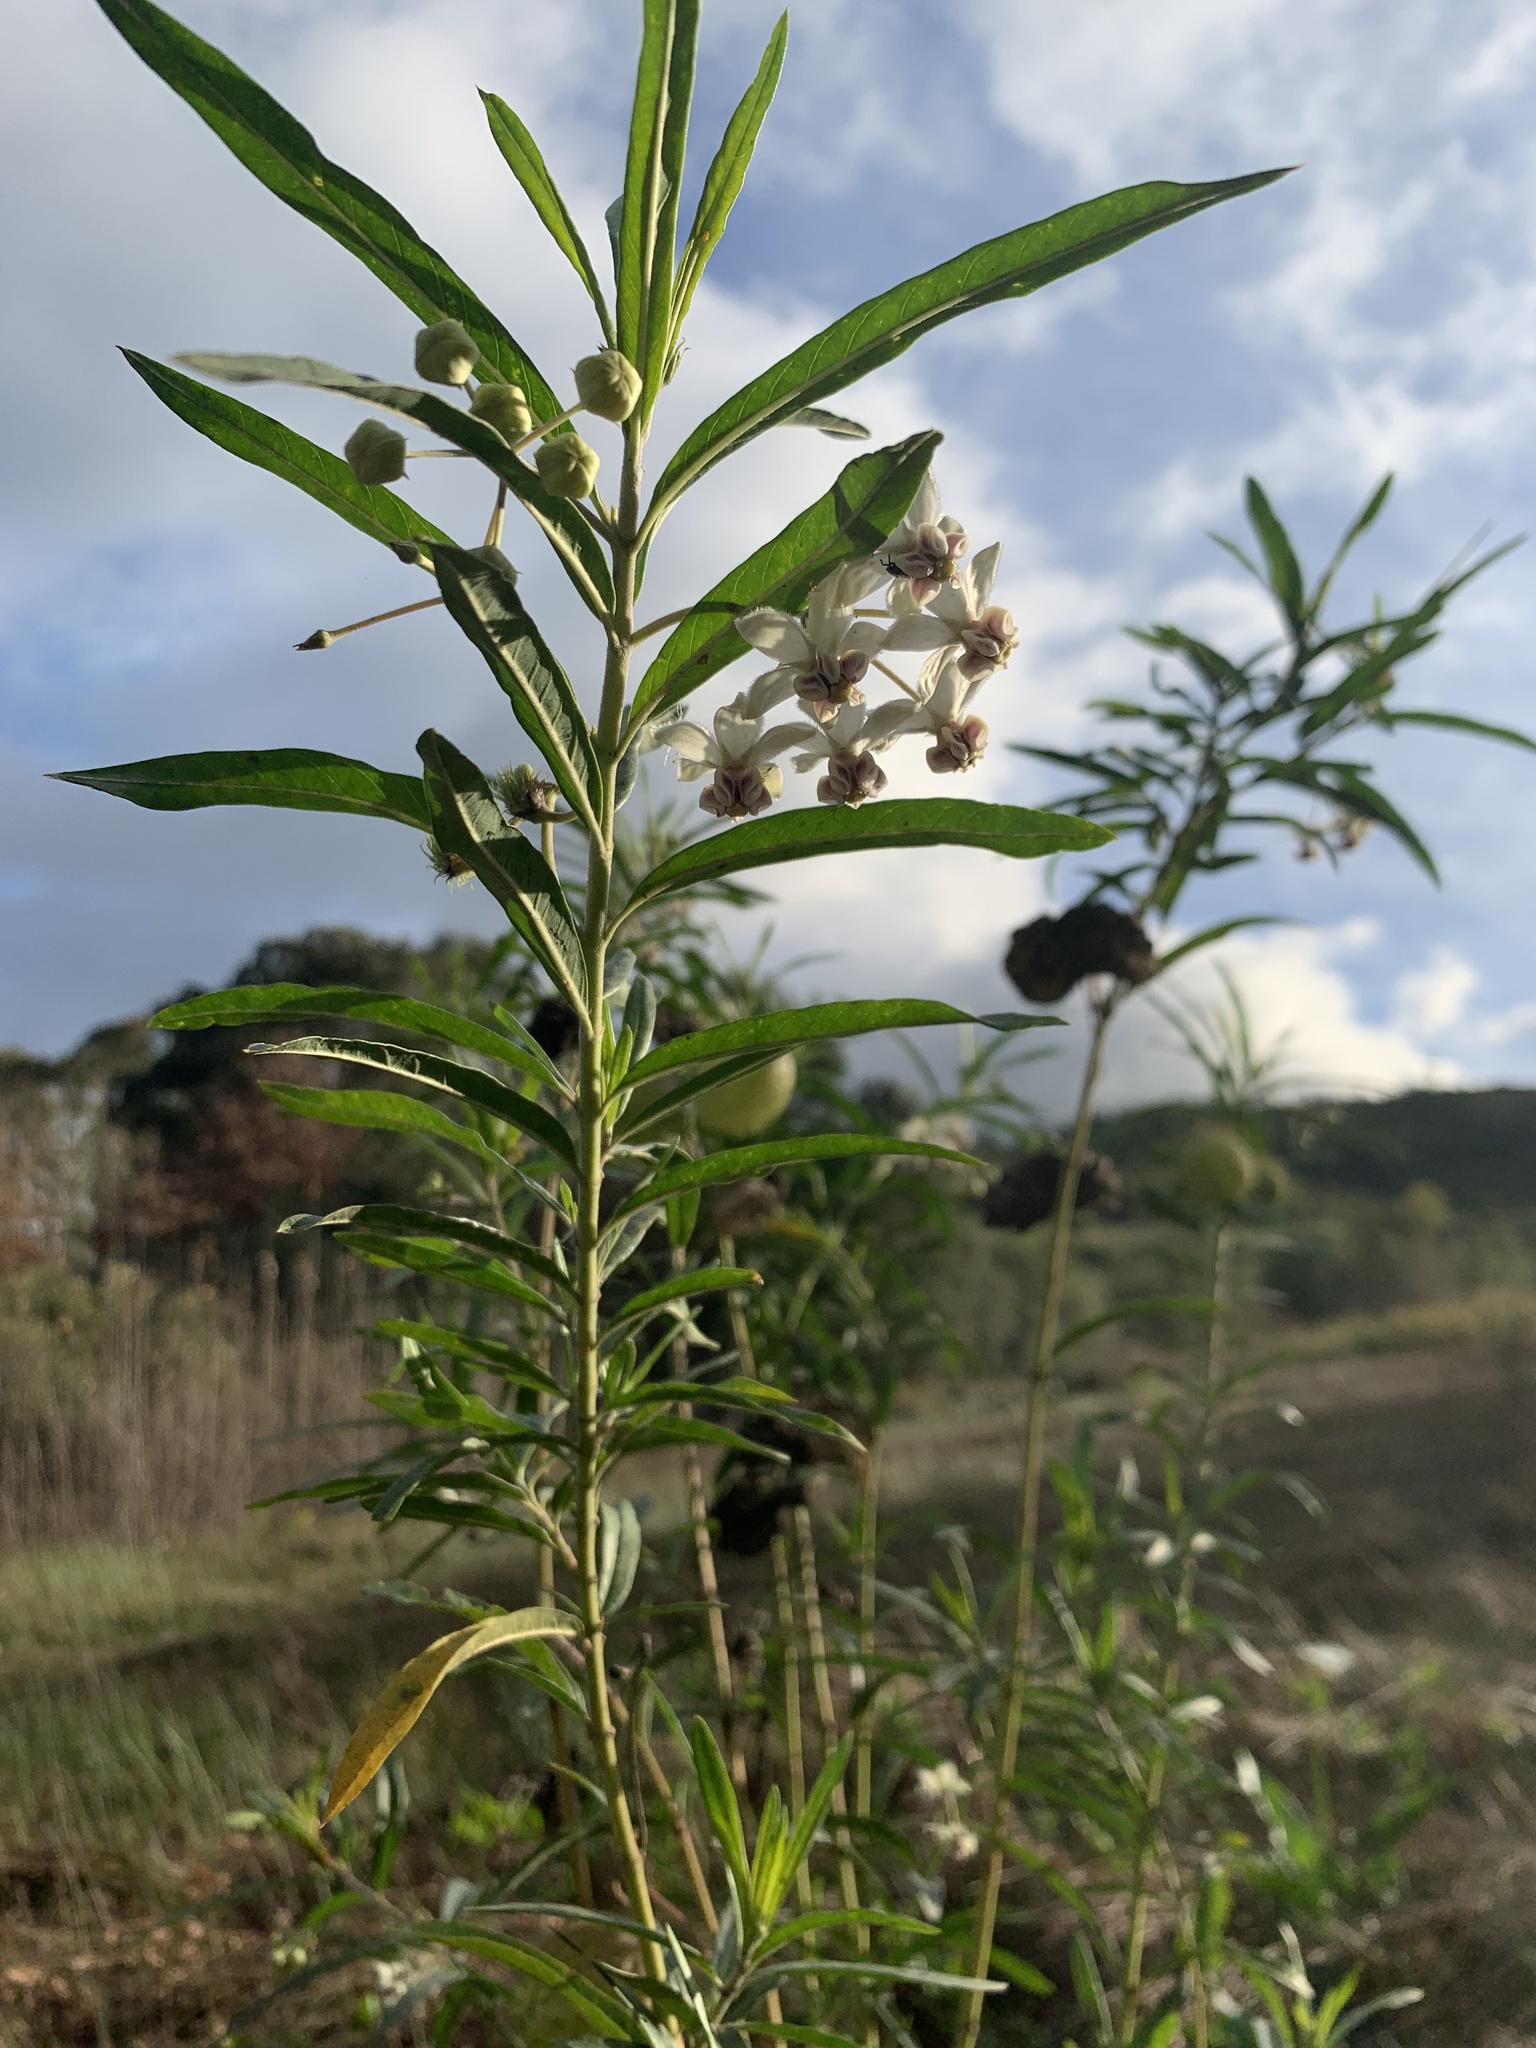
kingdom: Plantae
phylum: Tracheophyta
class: Magnoliopsida
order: Gentianales
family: Apocynaceae
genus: Gomphocarpus
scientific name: Gomphocarpus physocarpus
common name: Balloon cotton bush
